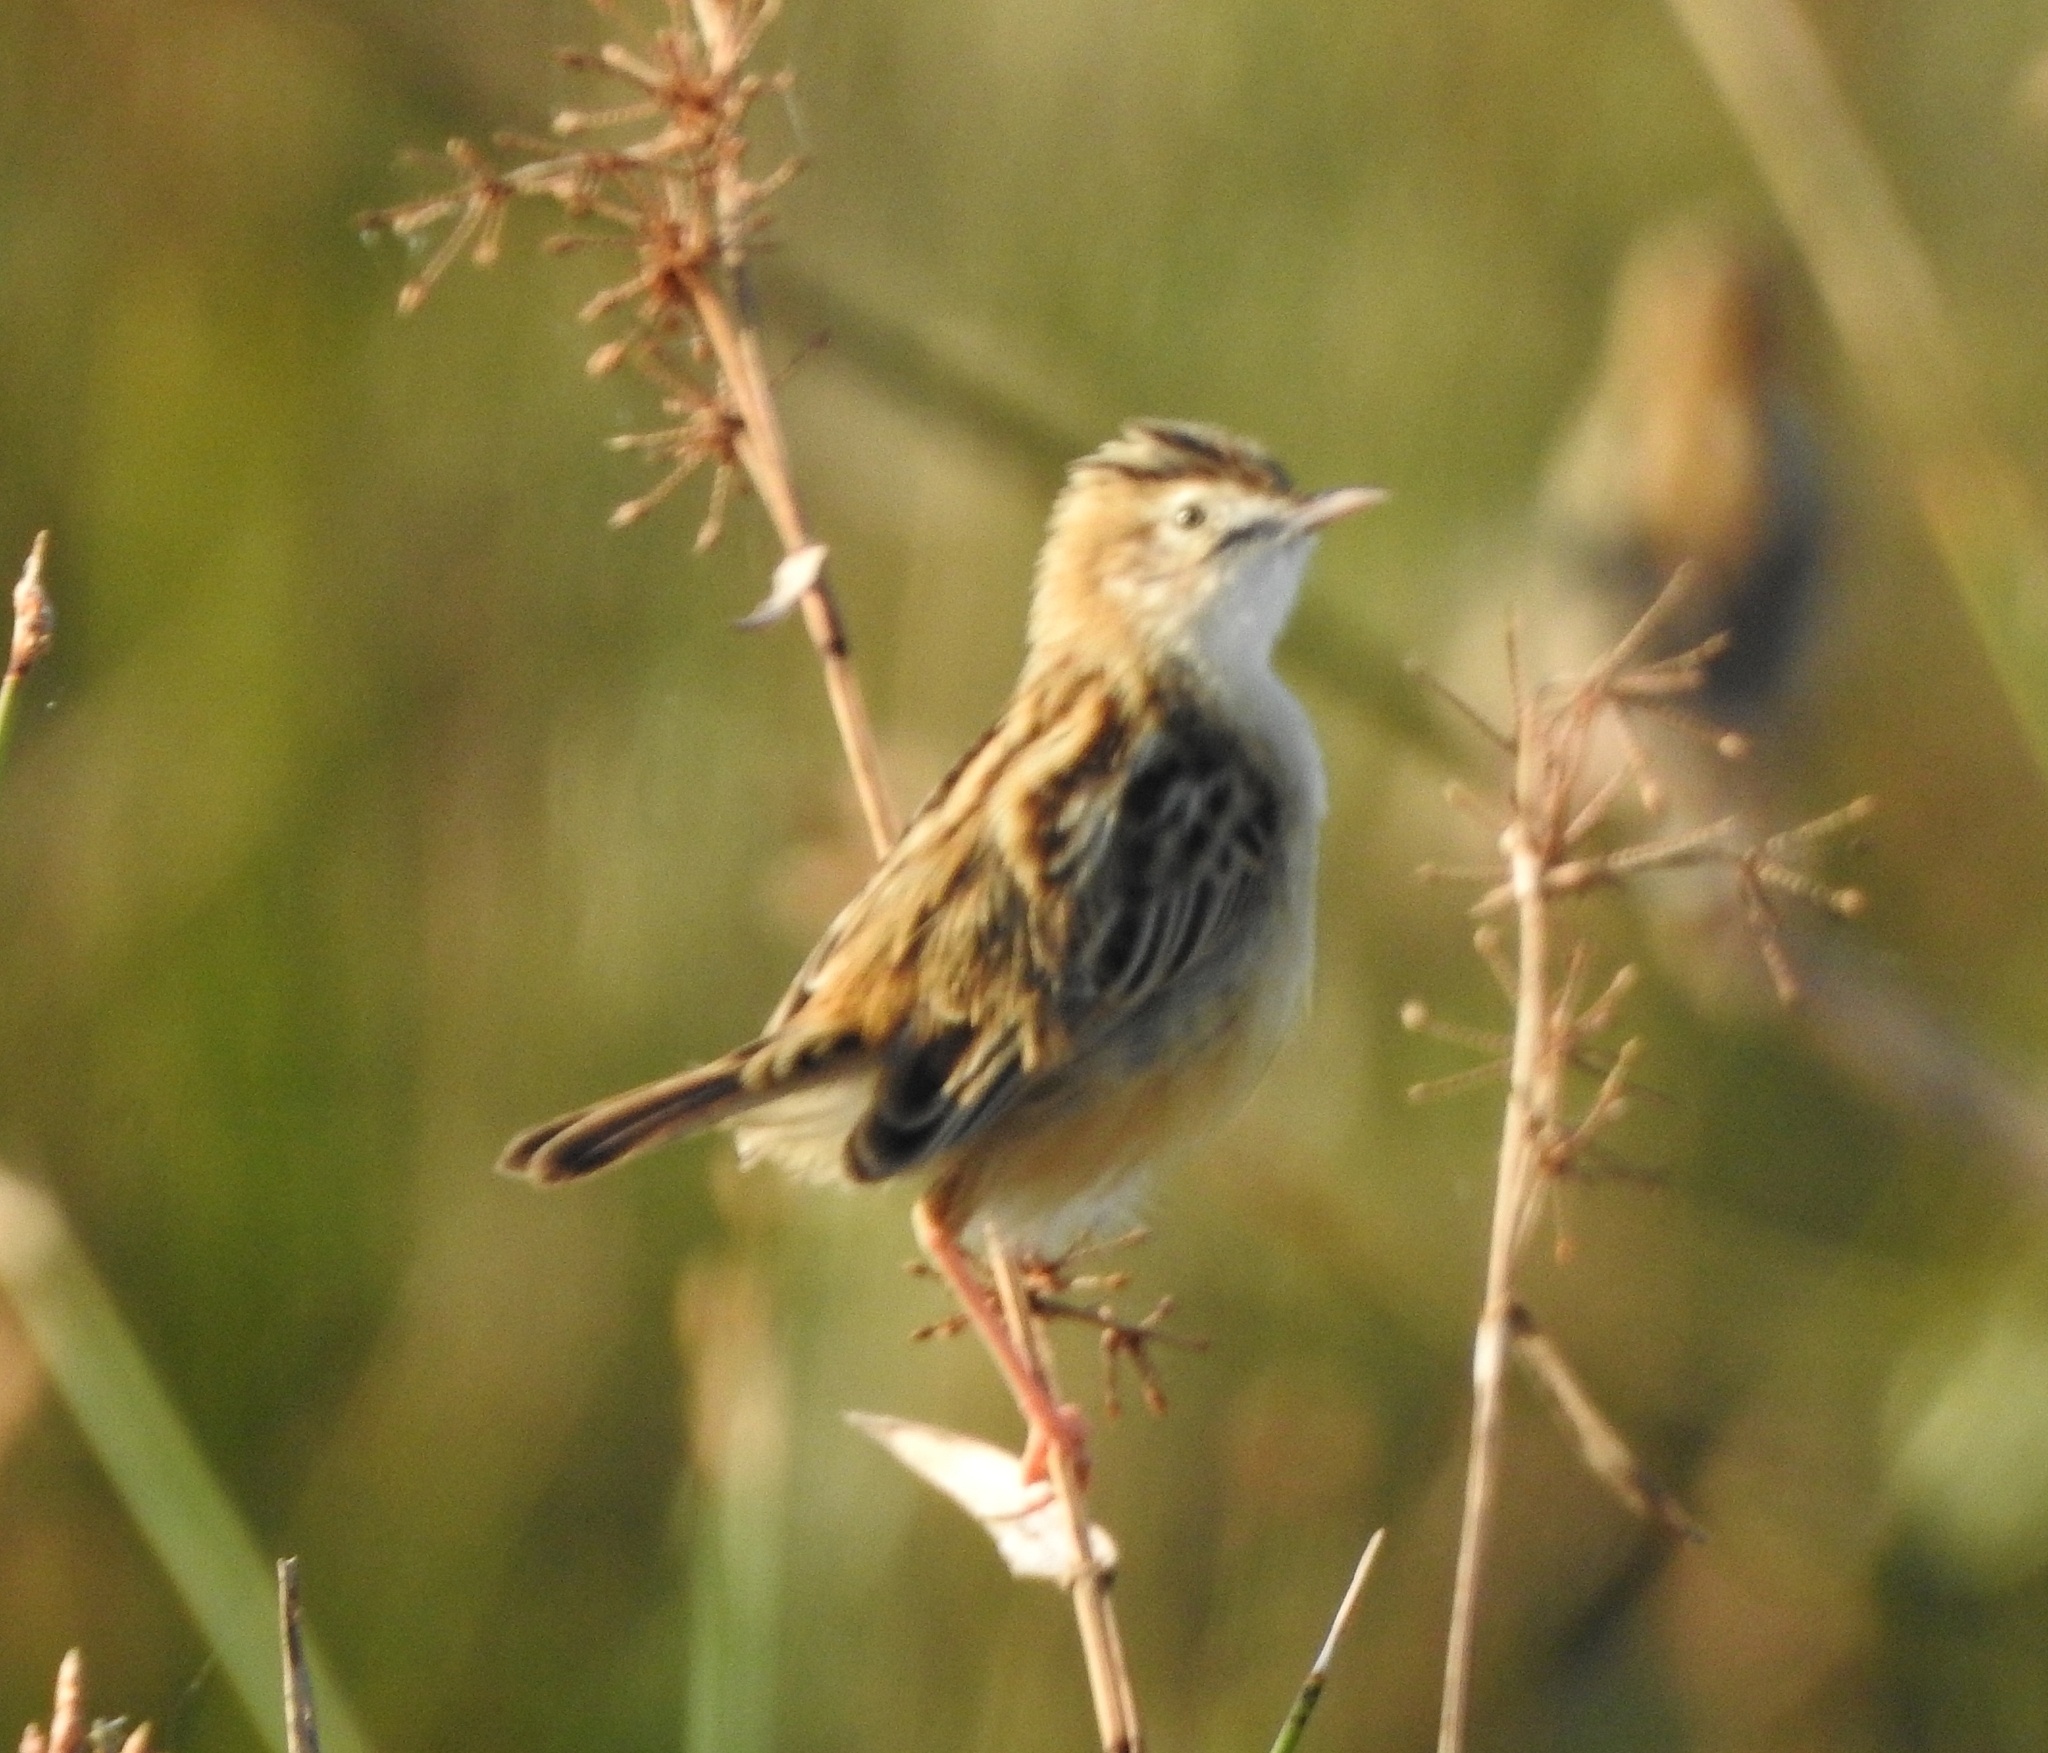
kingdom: Animalia
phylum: Chordata
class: Aves
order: Passeriformes
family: Cisticolidae
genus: Cisticola
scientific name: Cisticola juncidis
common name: Zitting cisticola
